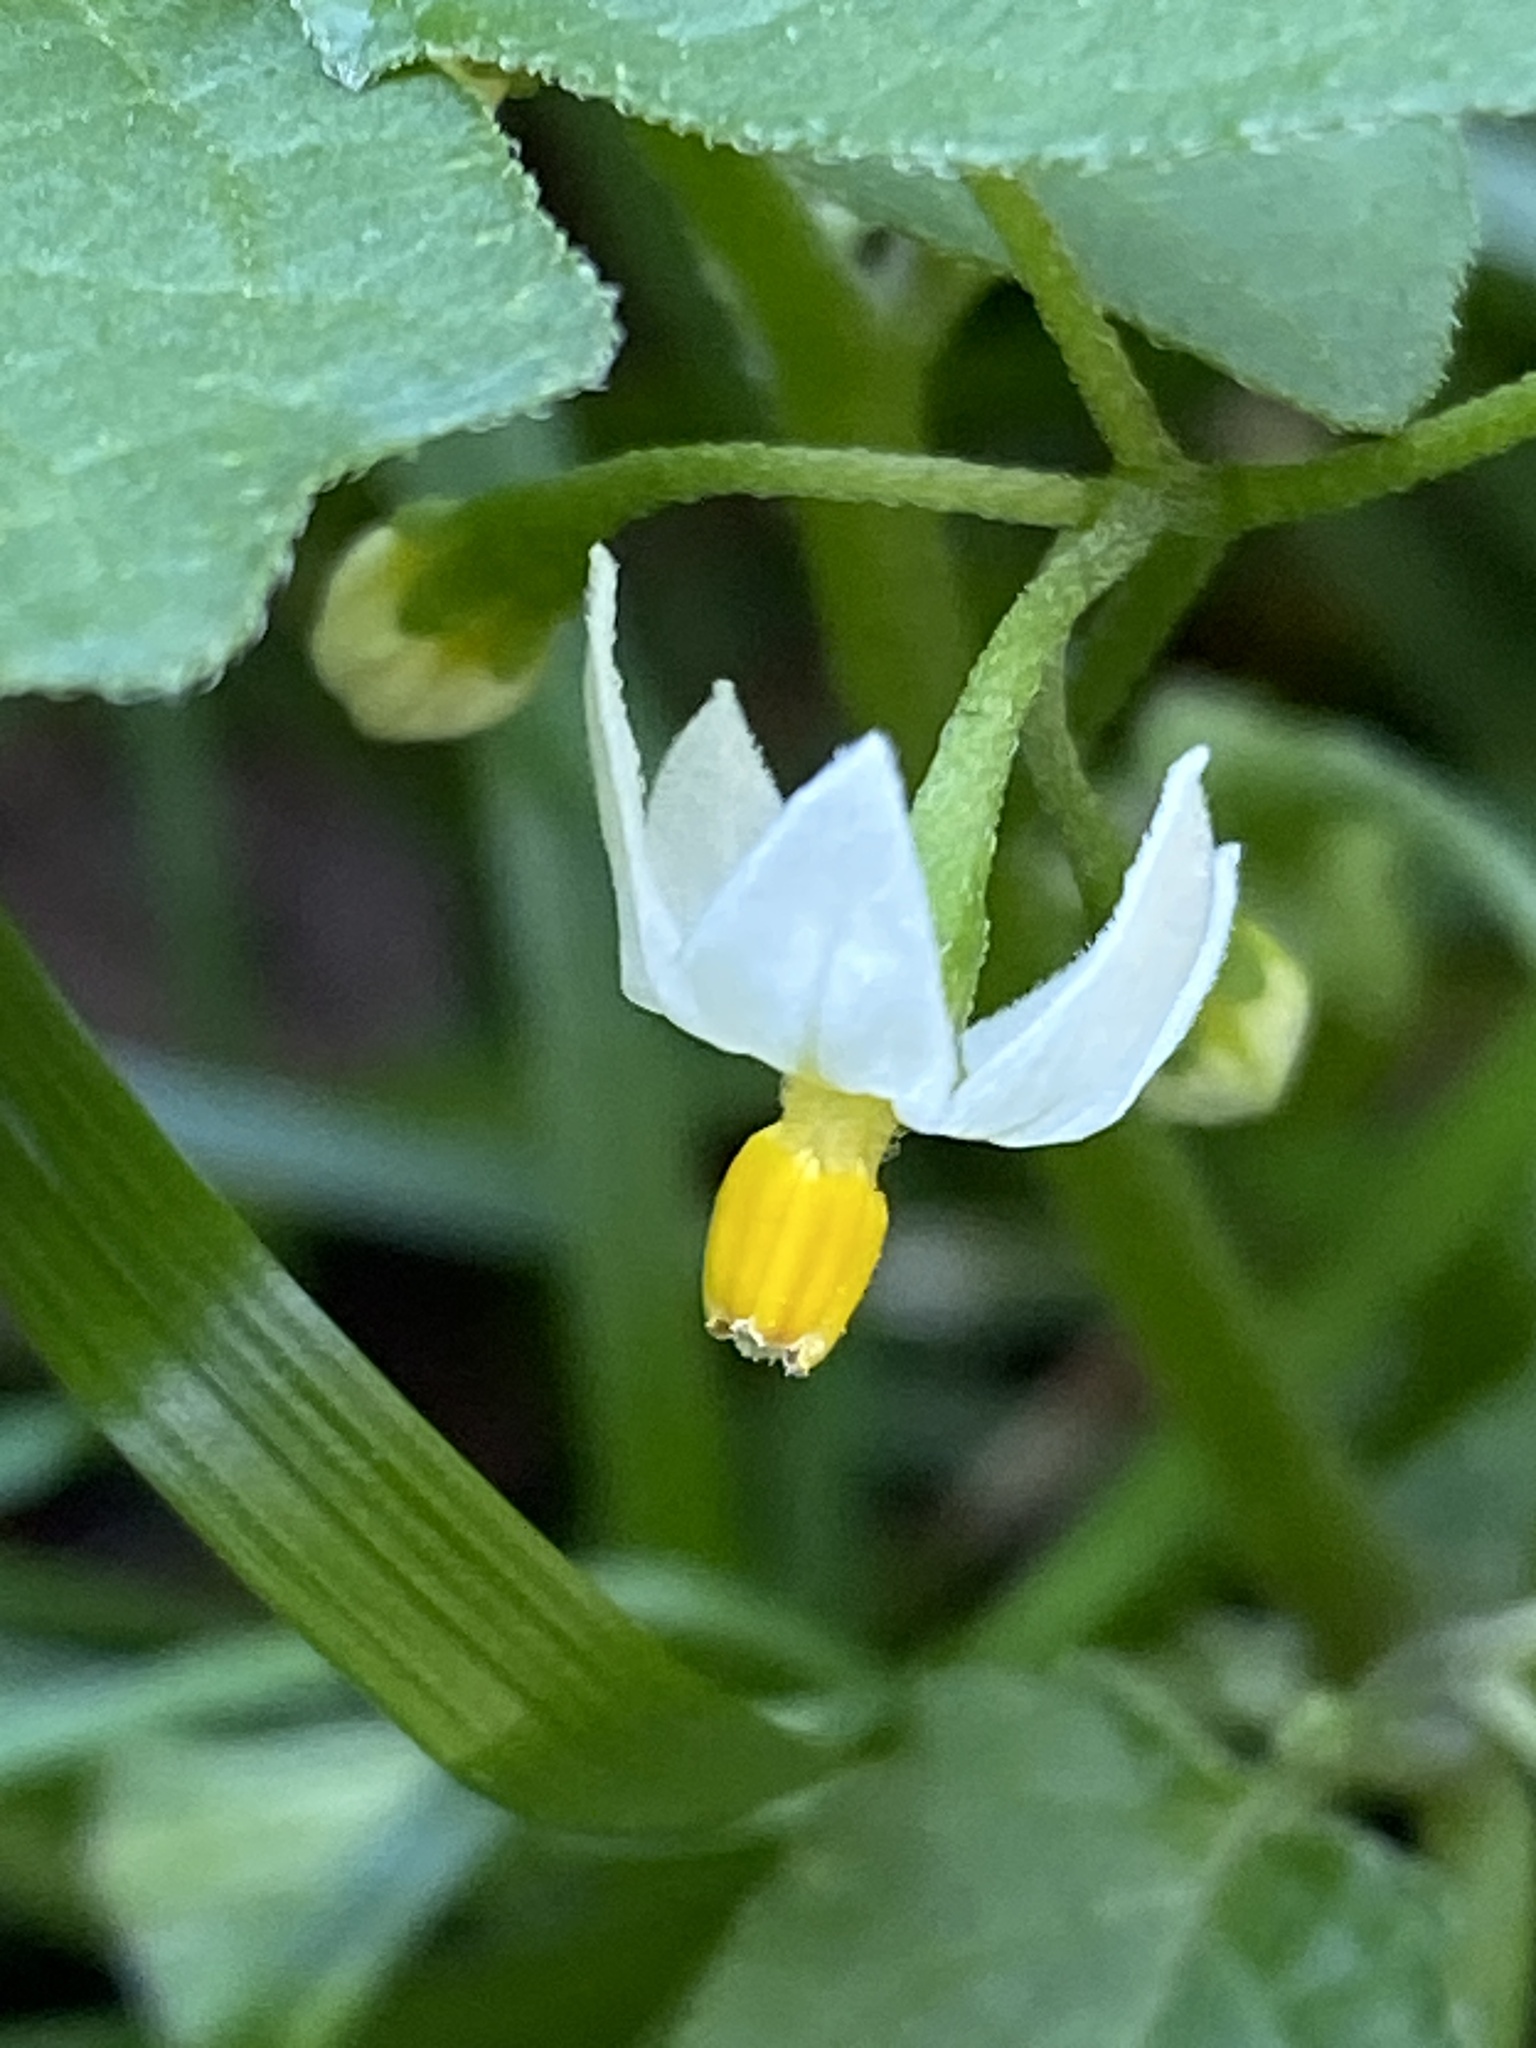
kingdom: Plantae
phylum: Tracheophyta
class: Magnoliopsida
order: Solanales
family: Solanaceae
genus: Solanum
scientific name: Solanum nigrum
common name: Black nightshade
